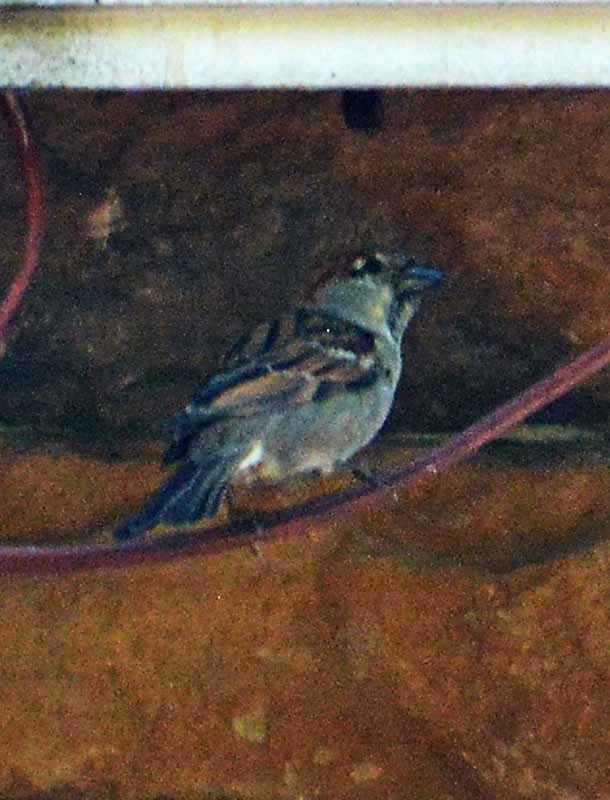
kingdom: Animalia
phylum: Chordata
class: Aves
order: Passeriformes
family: Passeridae
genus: Passer
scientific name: Passer domesticus
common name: House sparrow
